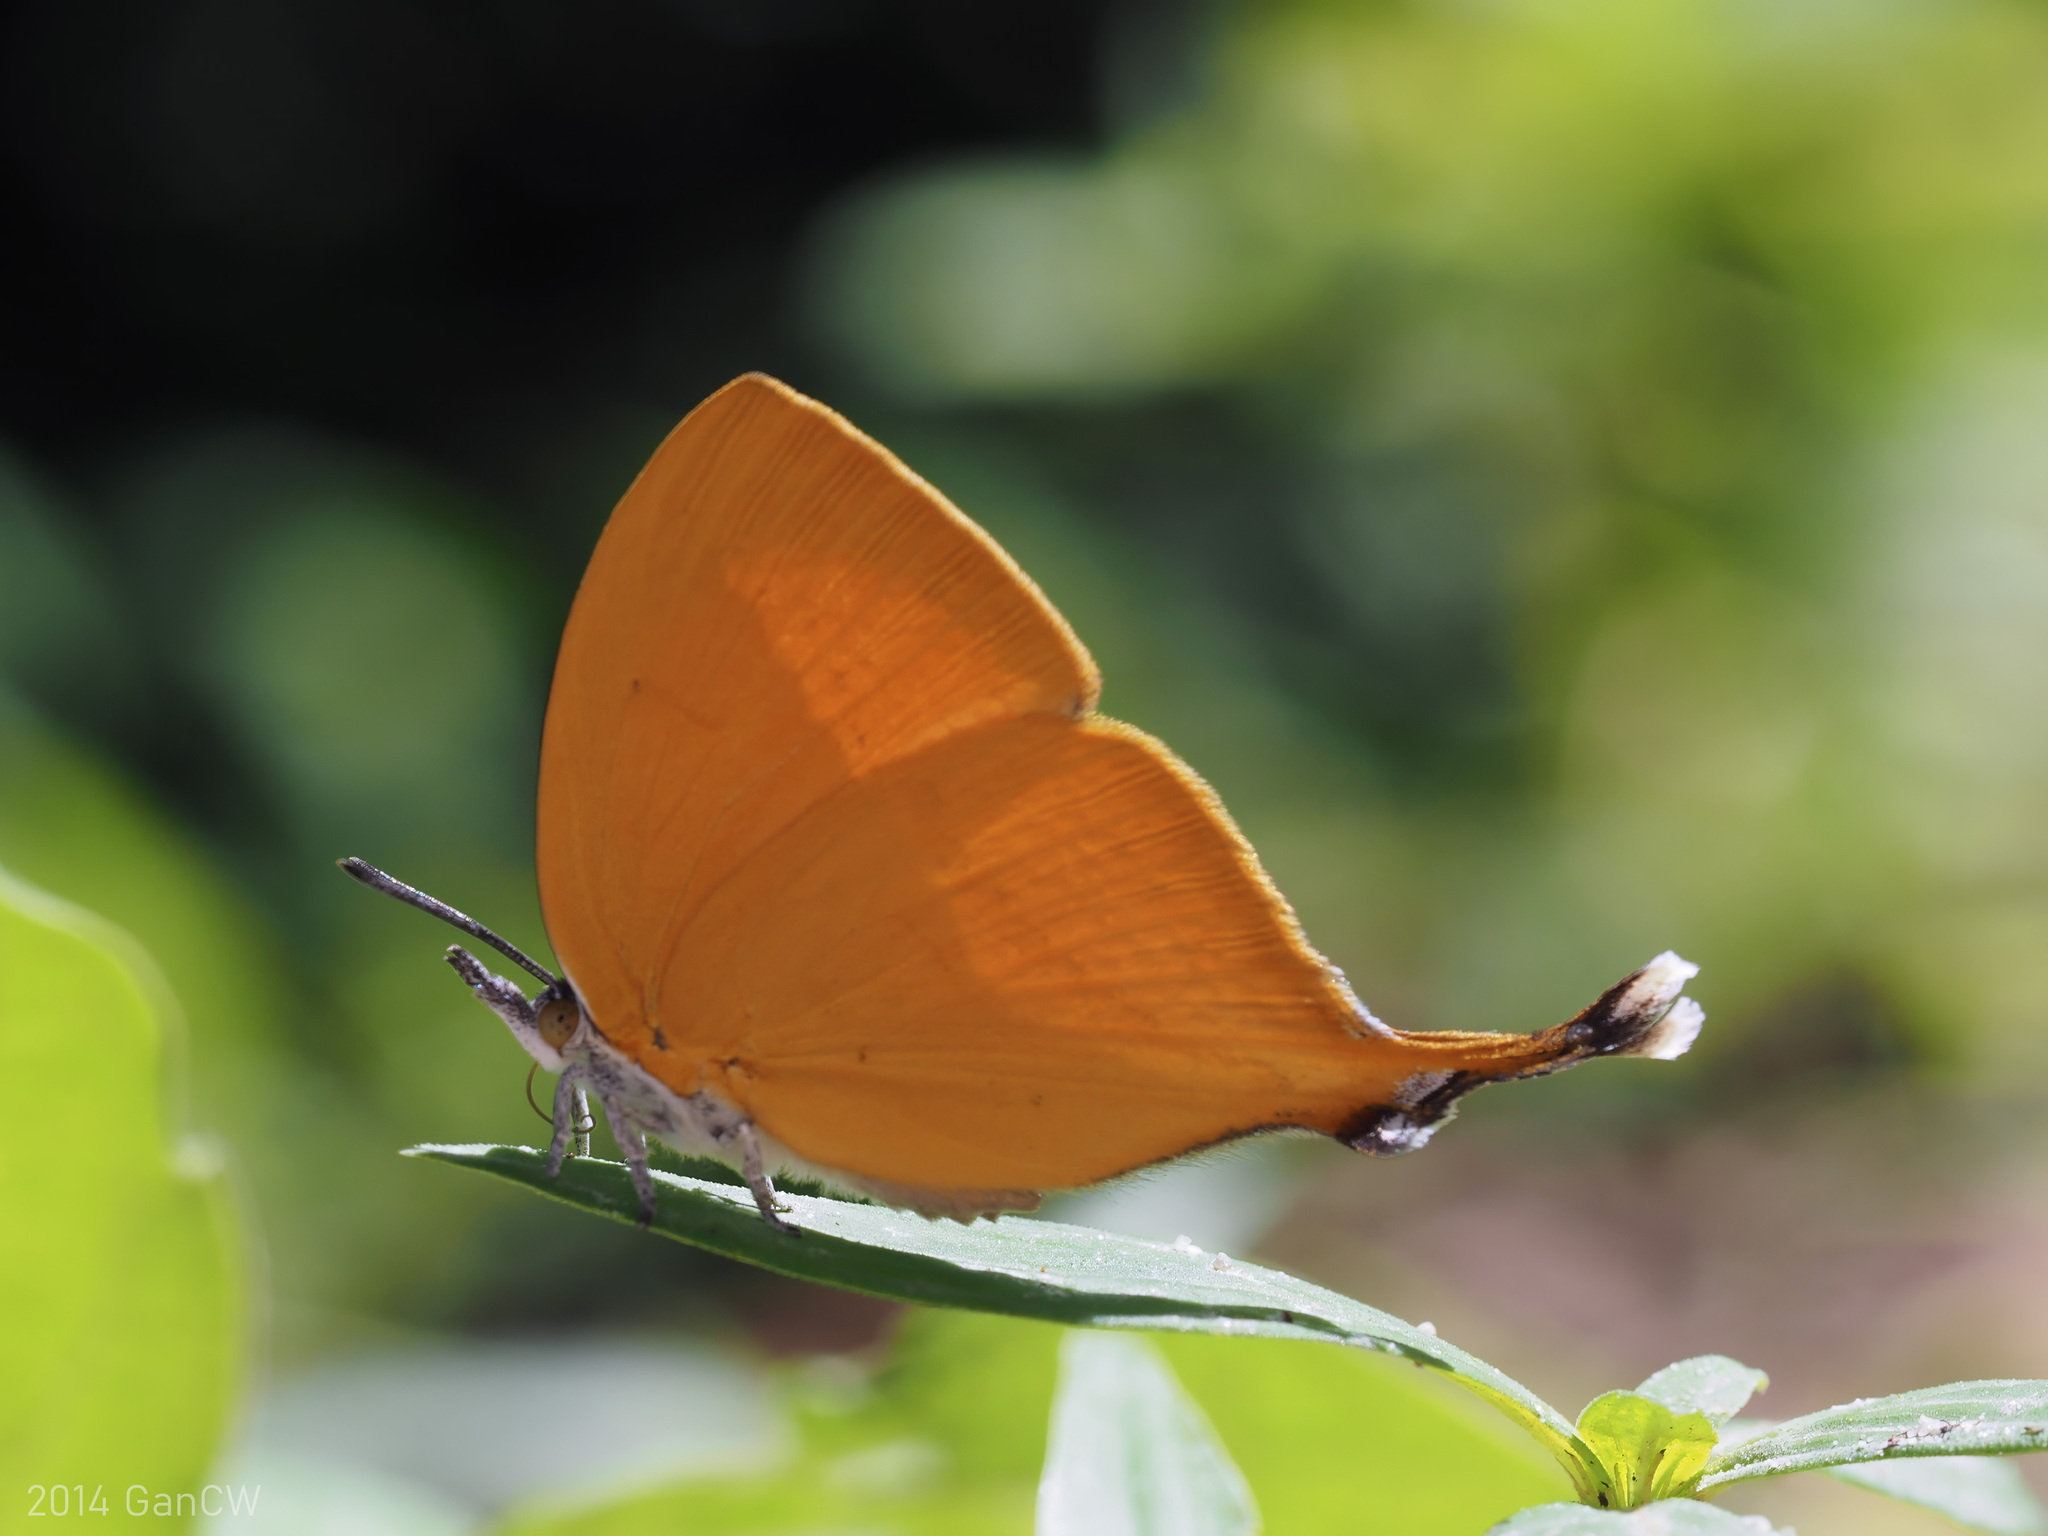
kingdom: Animalia
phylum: Arthropoda
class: Insecta
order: Lepidoptera
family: Lycaenidae
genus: Loxura
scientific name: Loxura atymnus
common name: Common yamfly
